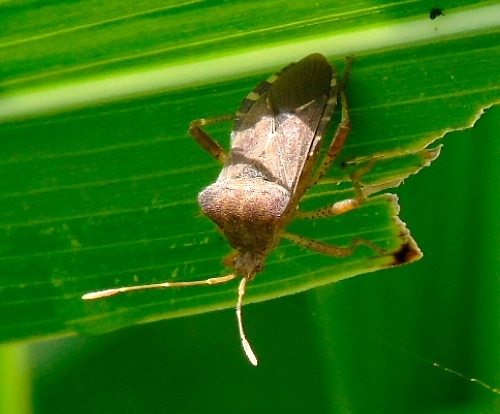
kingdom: Animalia
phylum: Arthropoda
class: Insecta
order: Hemiptera
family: Coreidae
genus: Anasa
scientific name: Anasa scorbutica
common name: Squash bug
